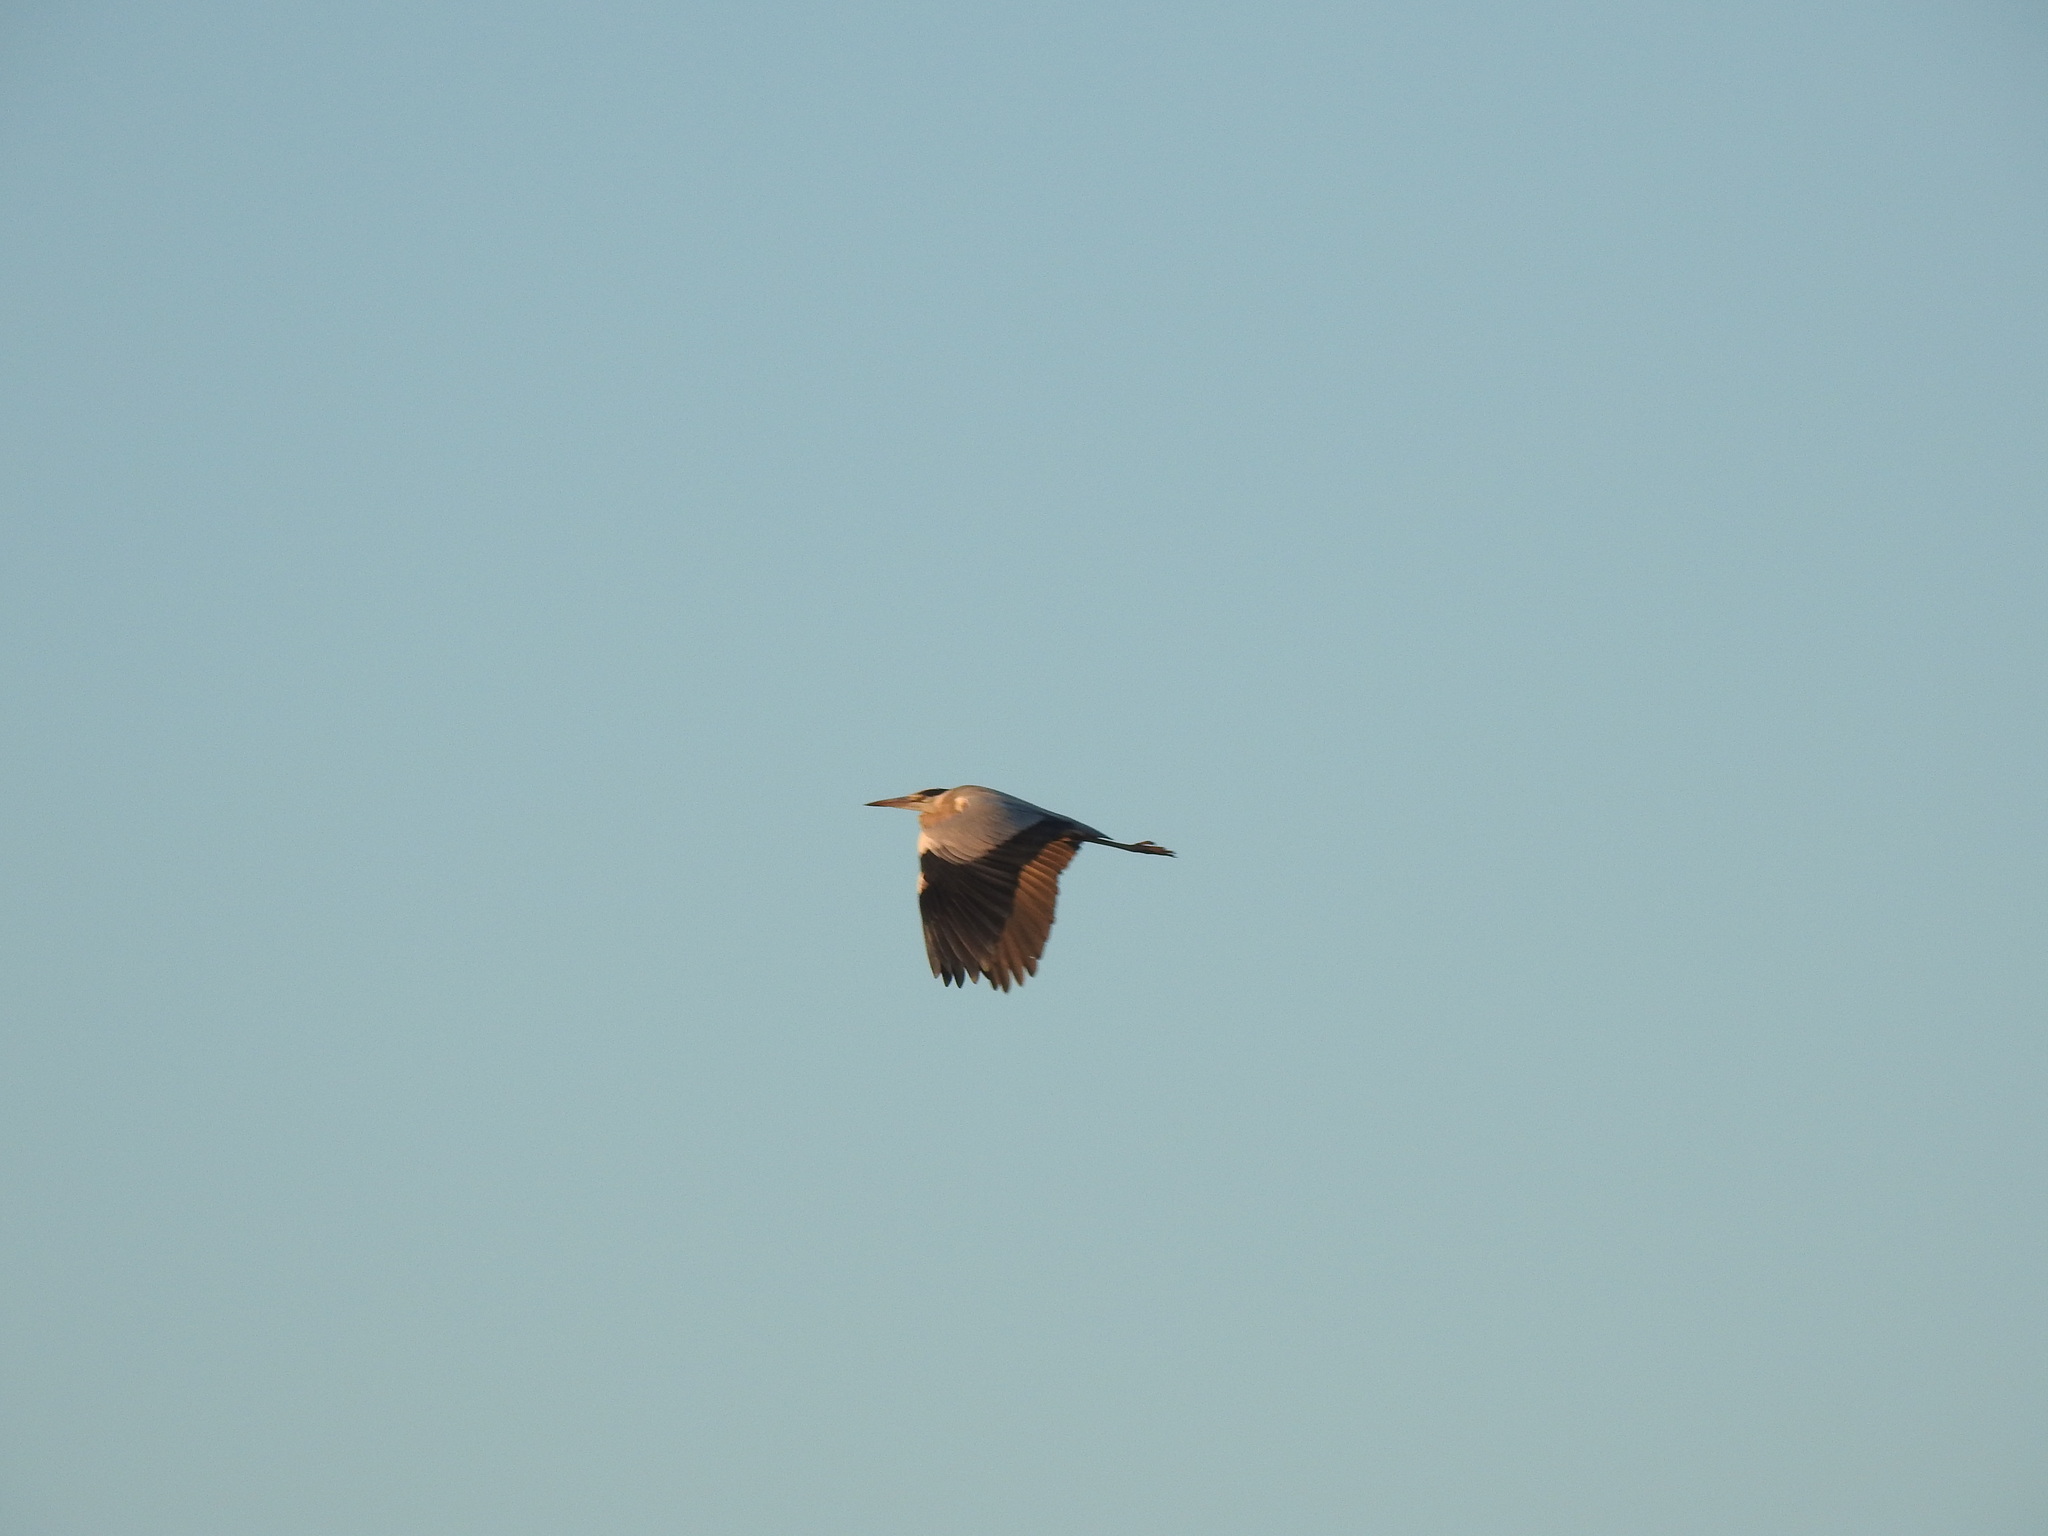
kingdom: Animalia
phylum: Chordata
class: Aves
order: Pelecaniformes
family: Ardeidae
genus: Ardea
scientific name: Ardea cinerea
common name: Grey heron
